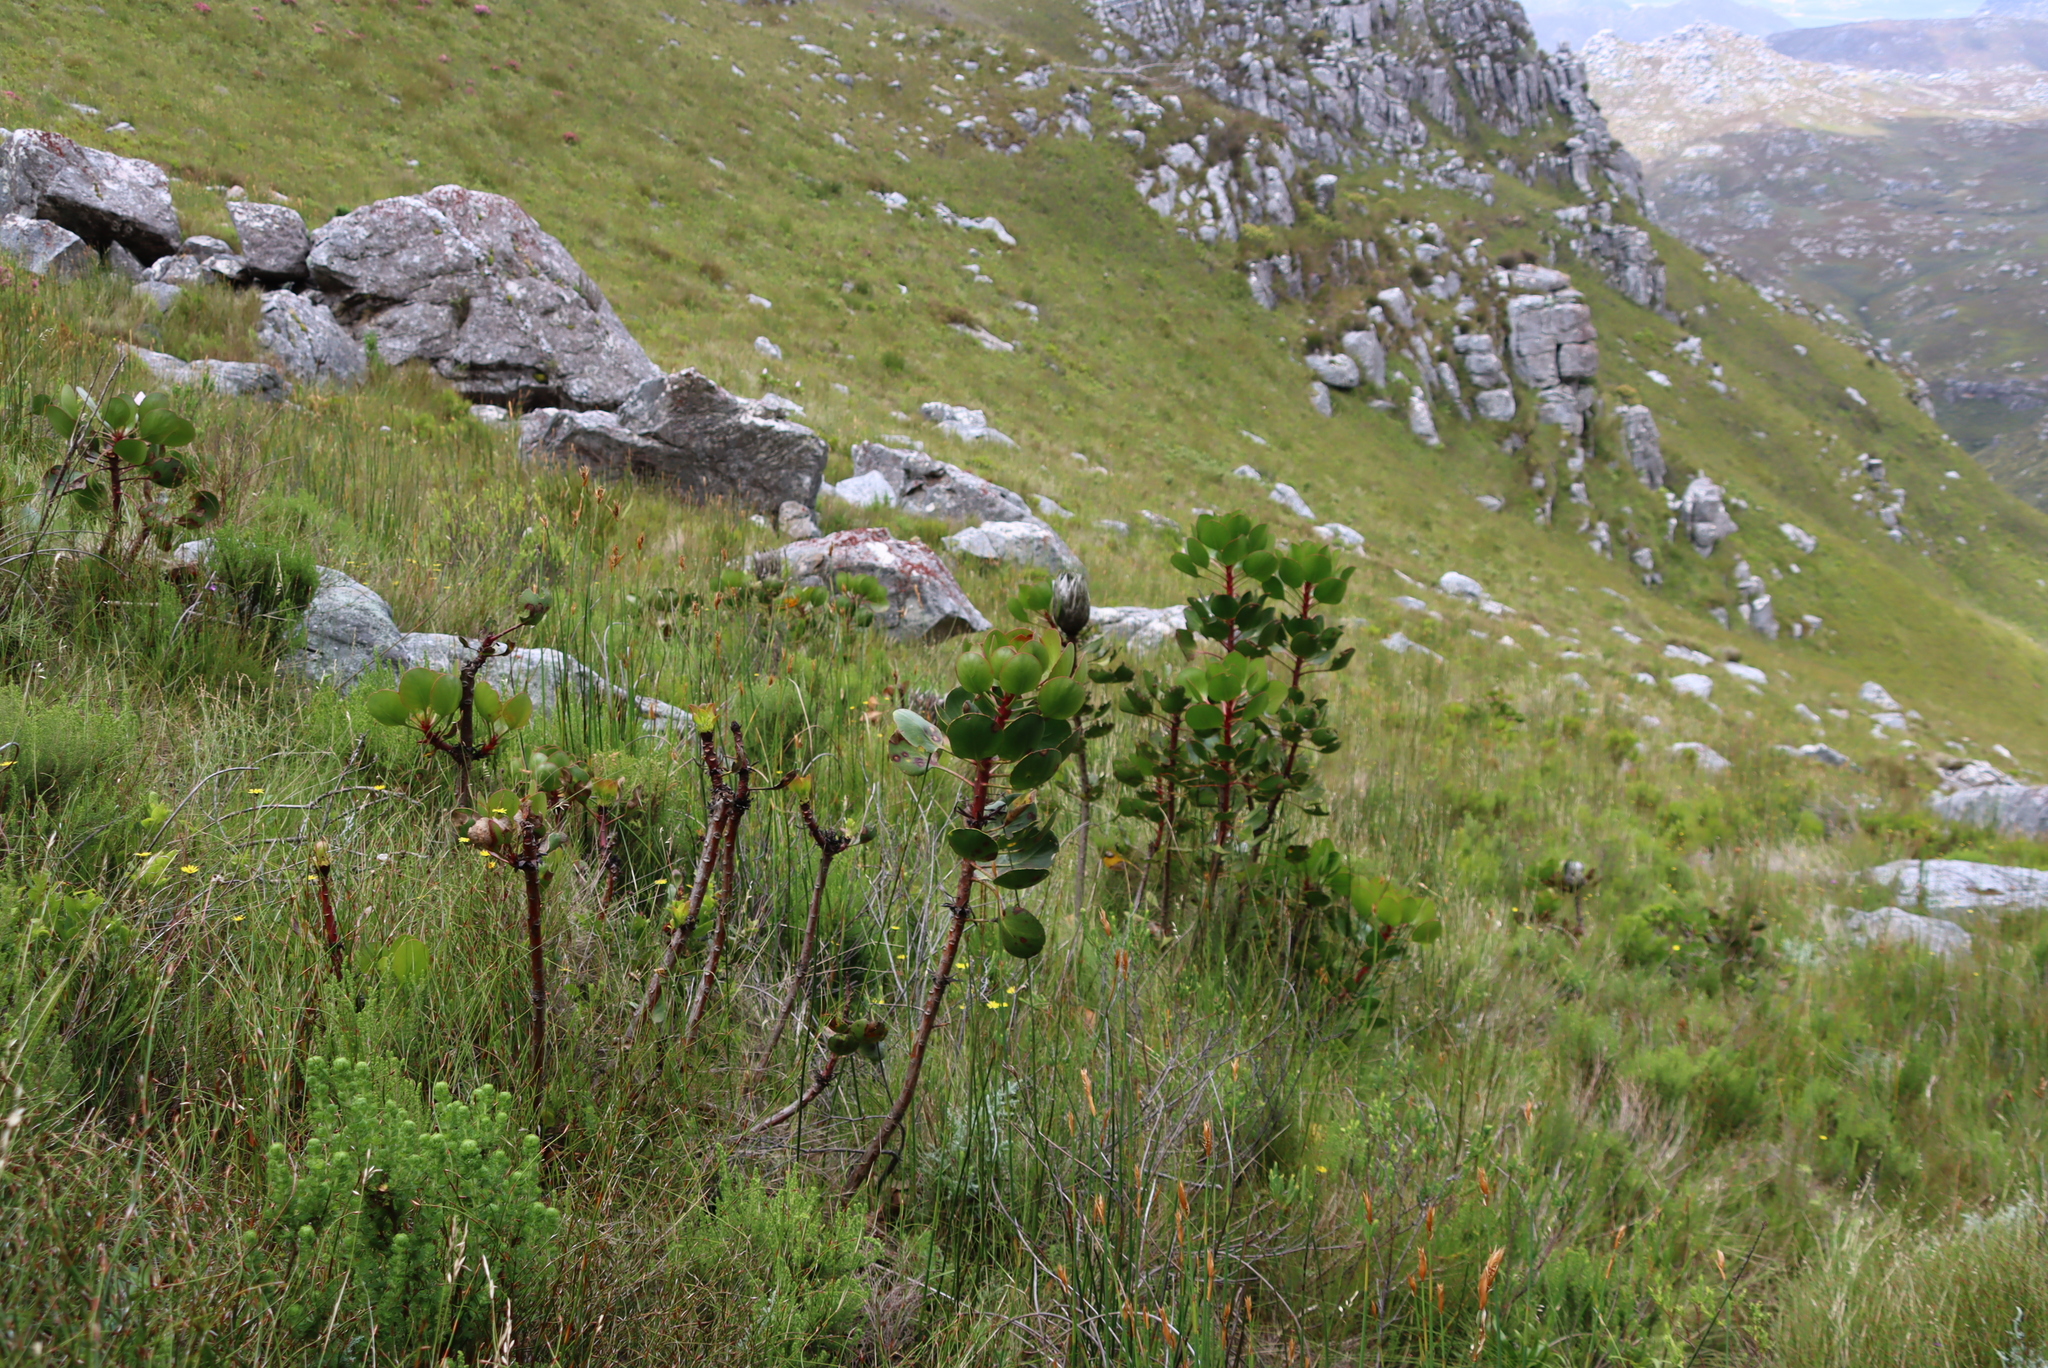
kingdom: Plantae
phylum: Tracheophyta
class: Magnoliopsida
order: Proteales
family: Proteaceae
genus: Protea
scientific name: Protea cynaroides
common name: King protea
